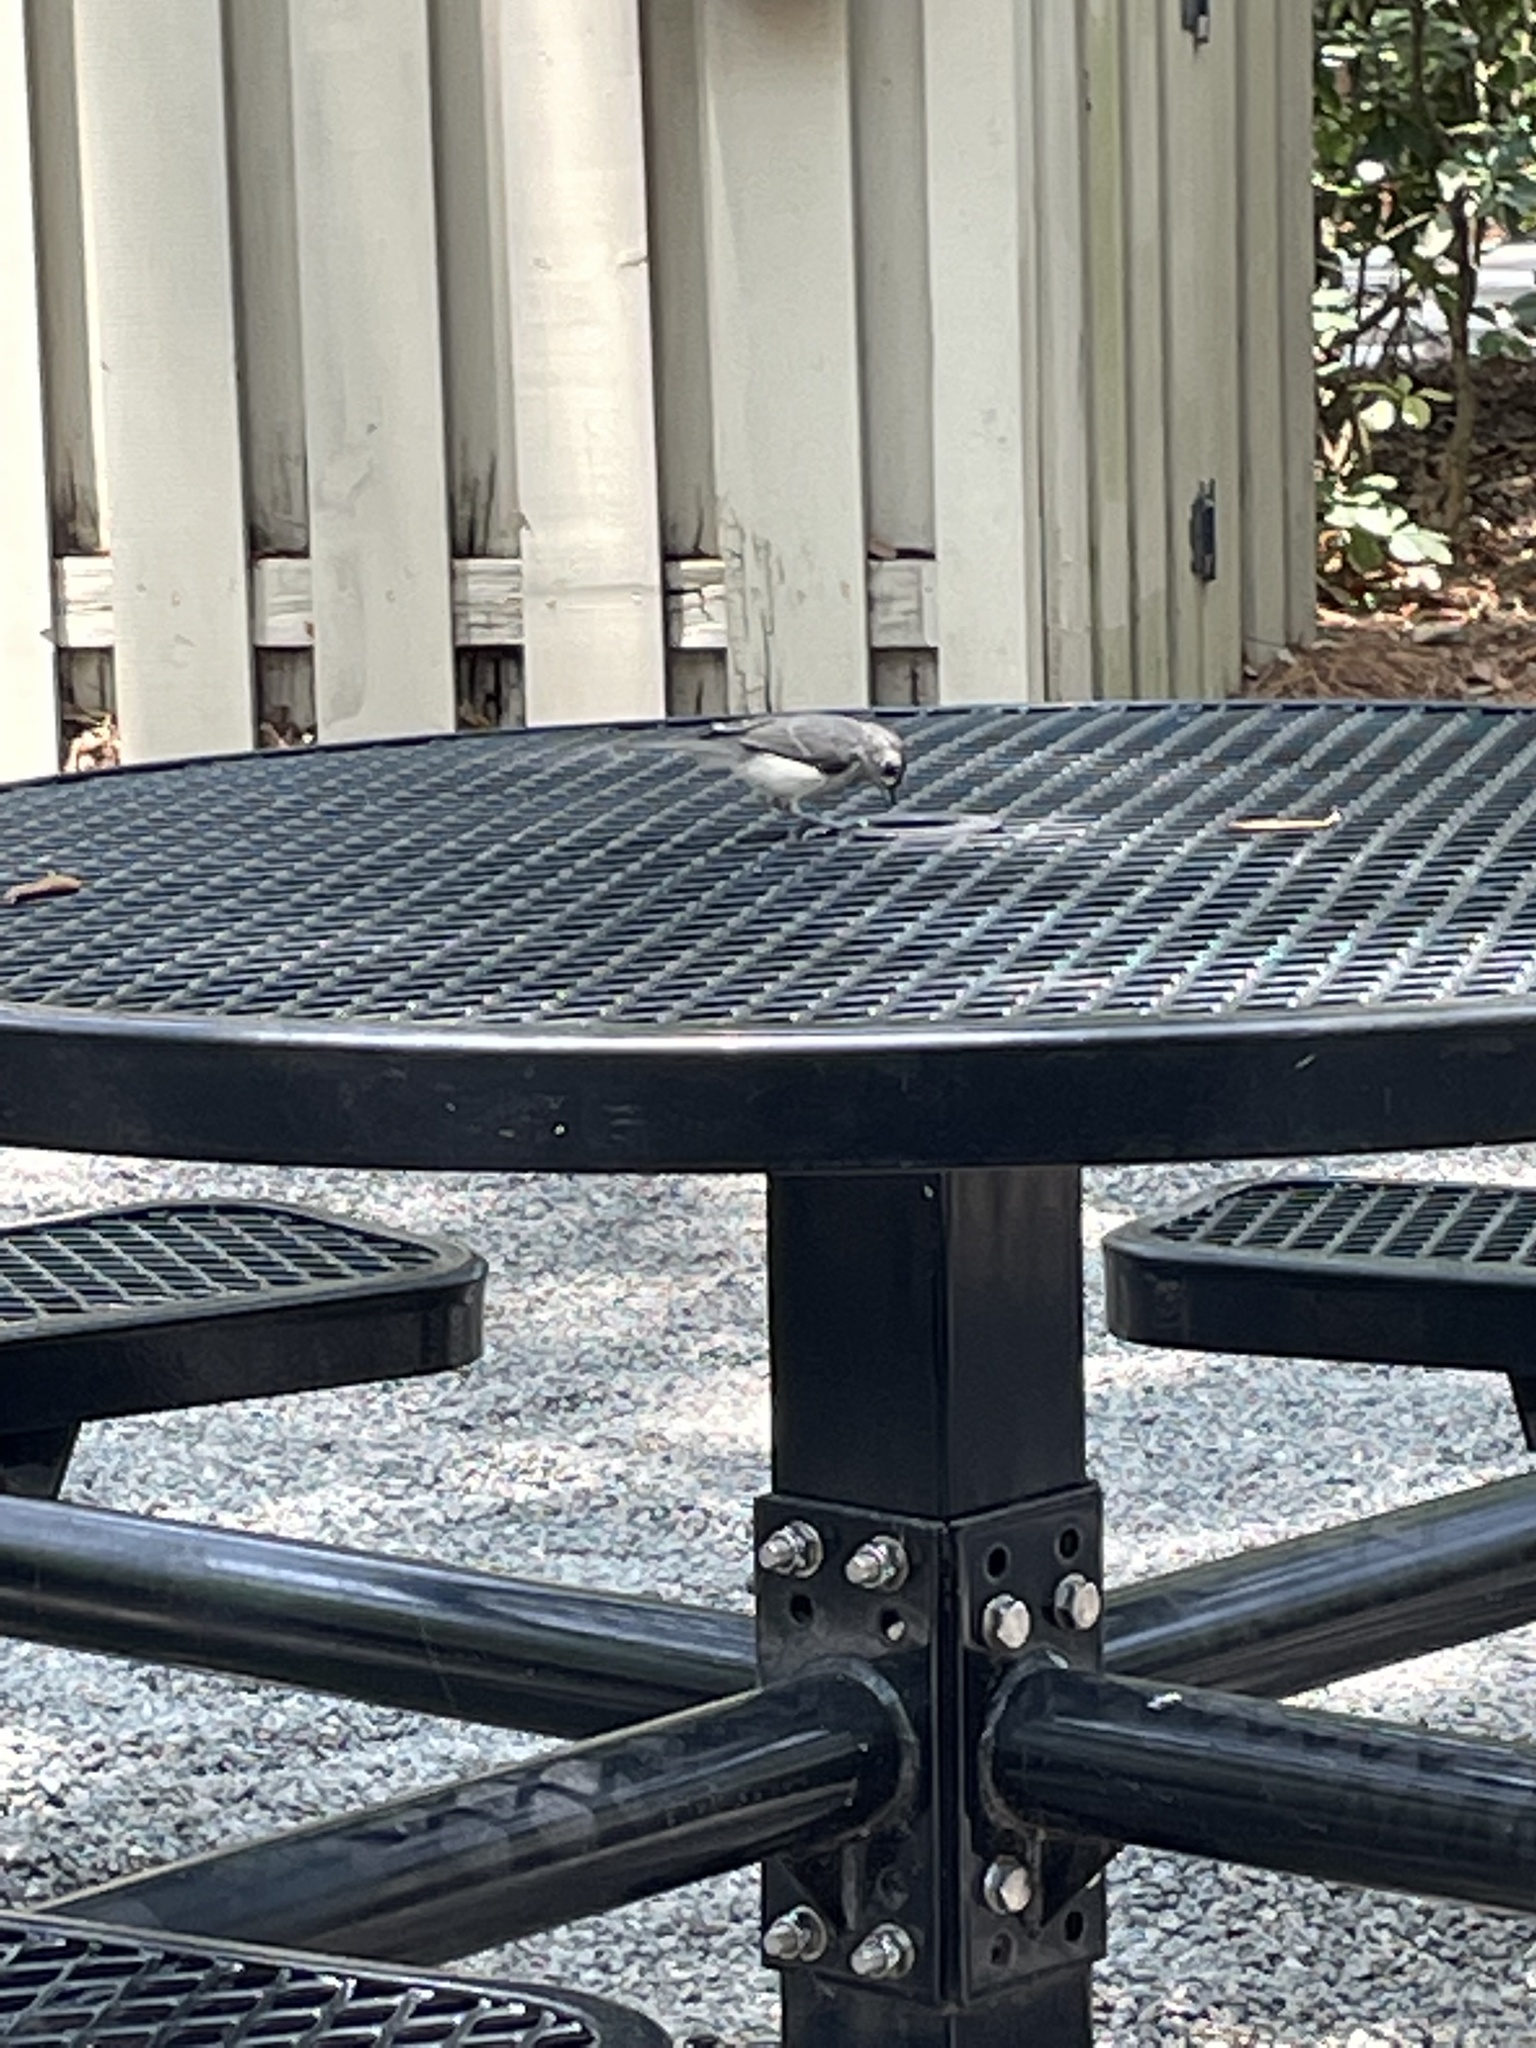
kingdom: Animalia
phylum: Chordata
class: Aves
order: Passeriformes
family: Paridae
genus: Baeolophus
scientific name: Baeolophus bicolor
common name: Tufted titmouse
